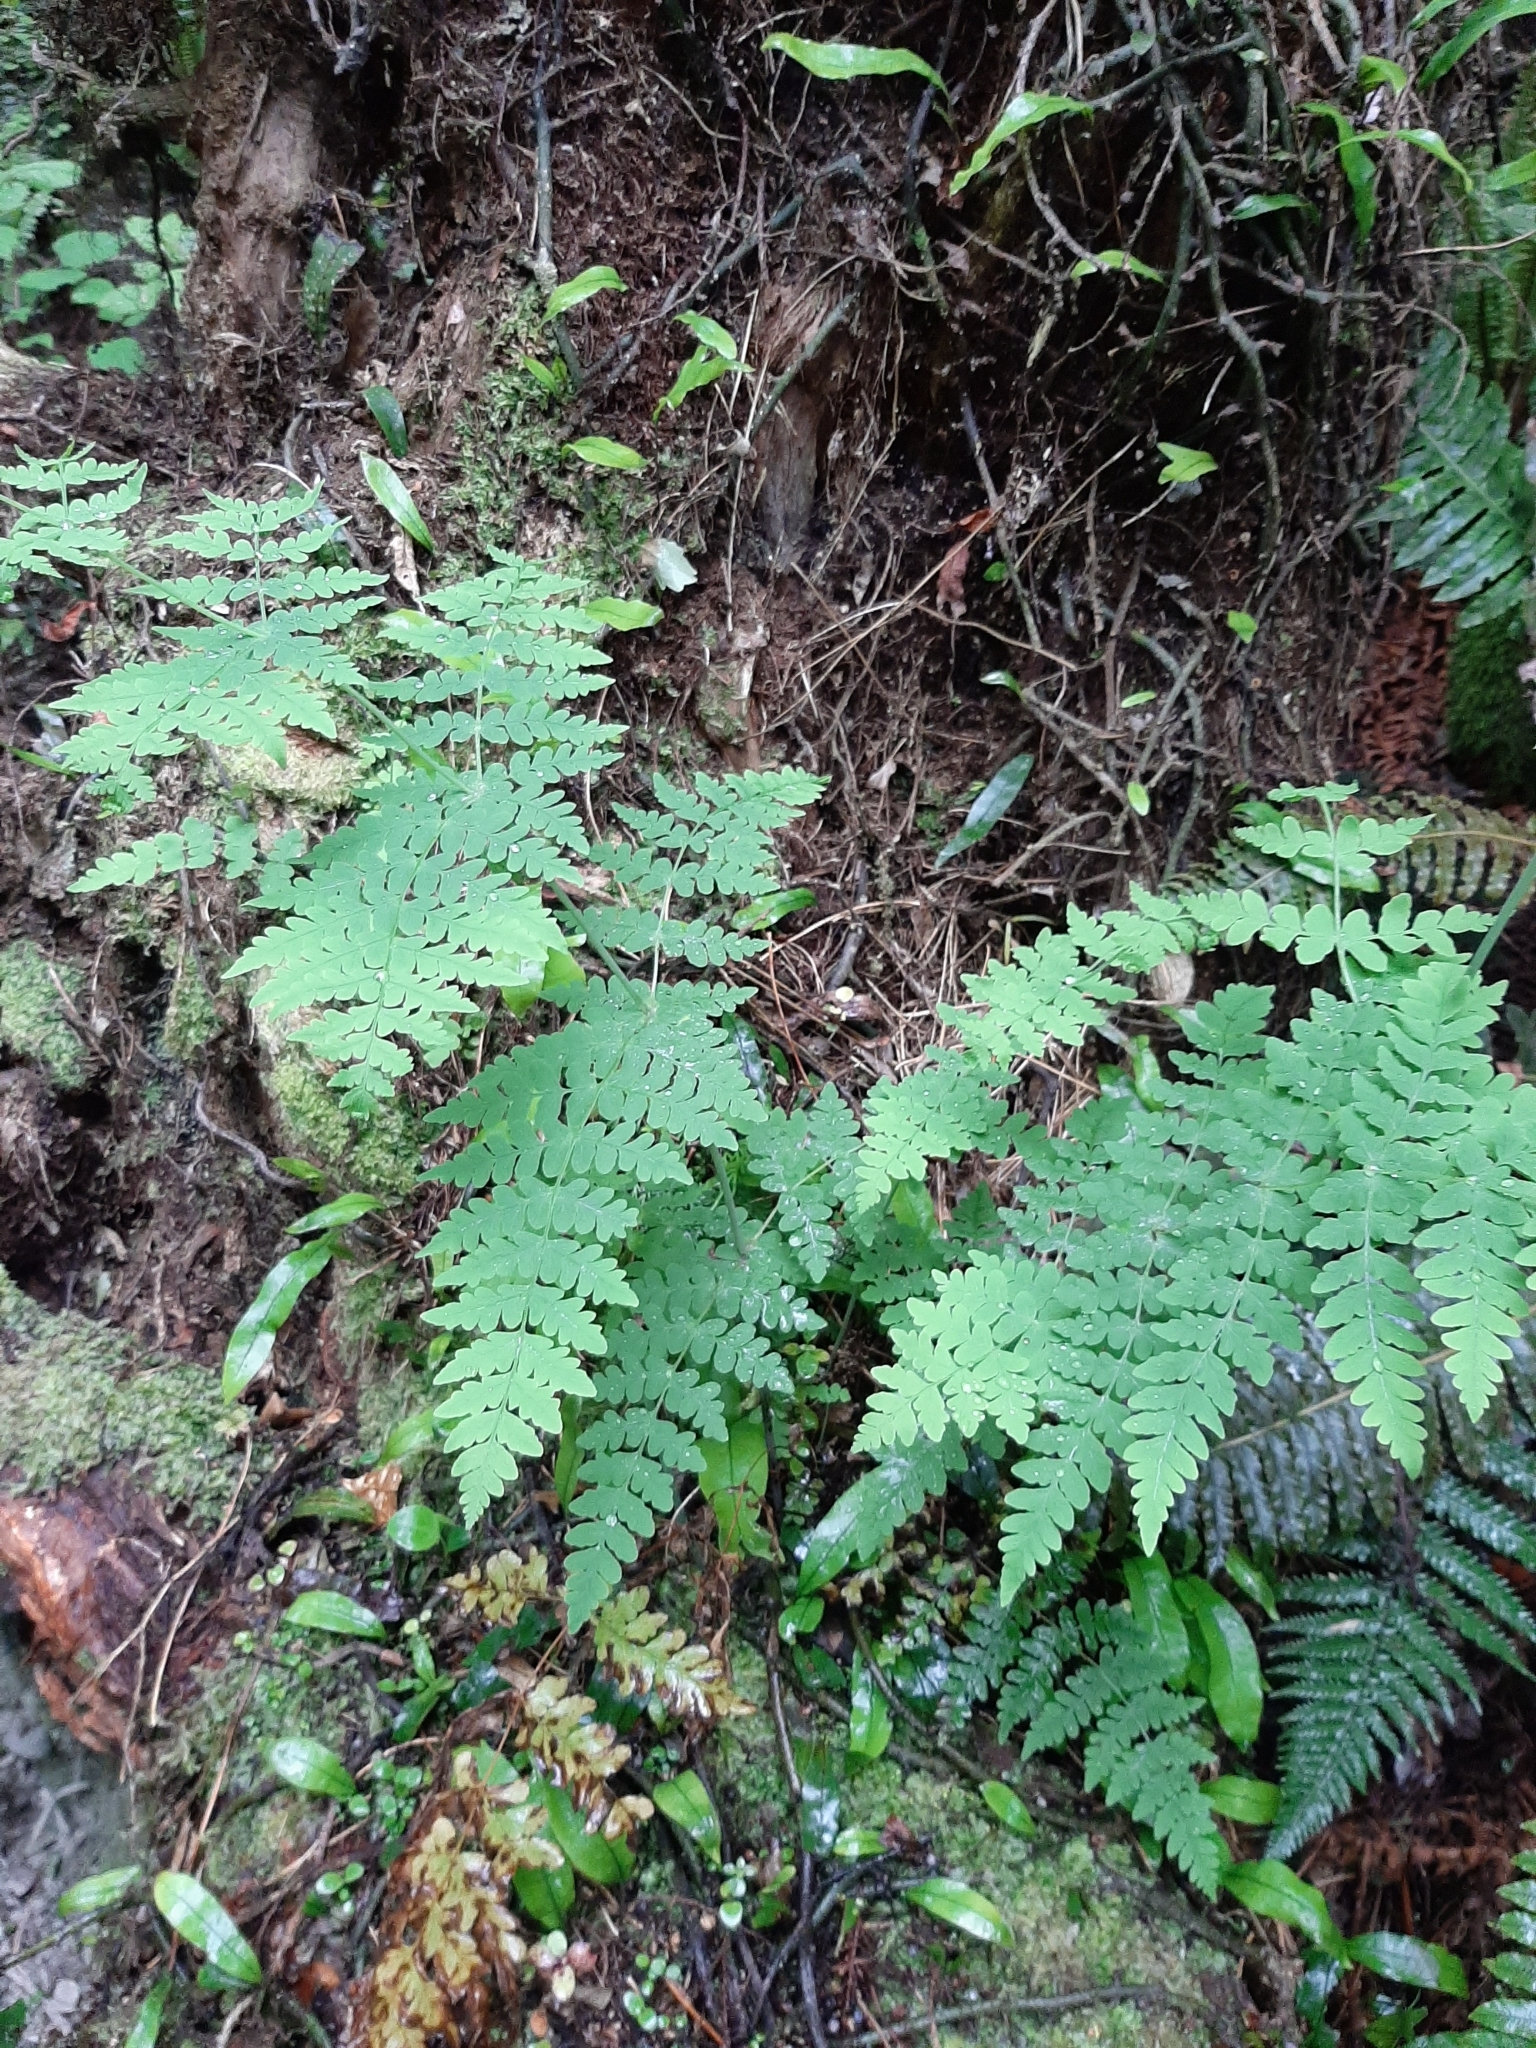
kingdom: Plantae
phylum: Tracheophyta
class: Polypodiopsida
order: Polypodiales
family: Dennstaedtiaceae
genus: Histiopteris
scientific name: Histiopteris incisa
